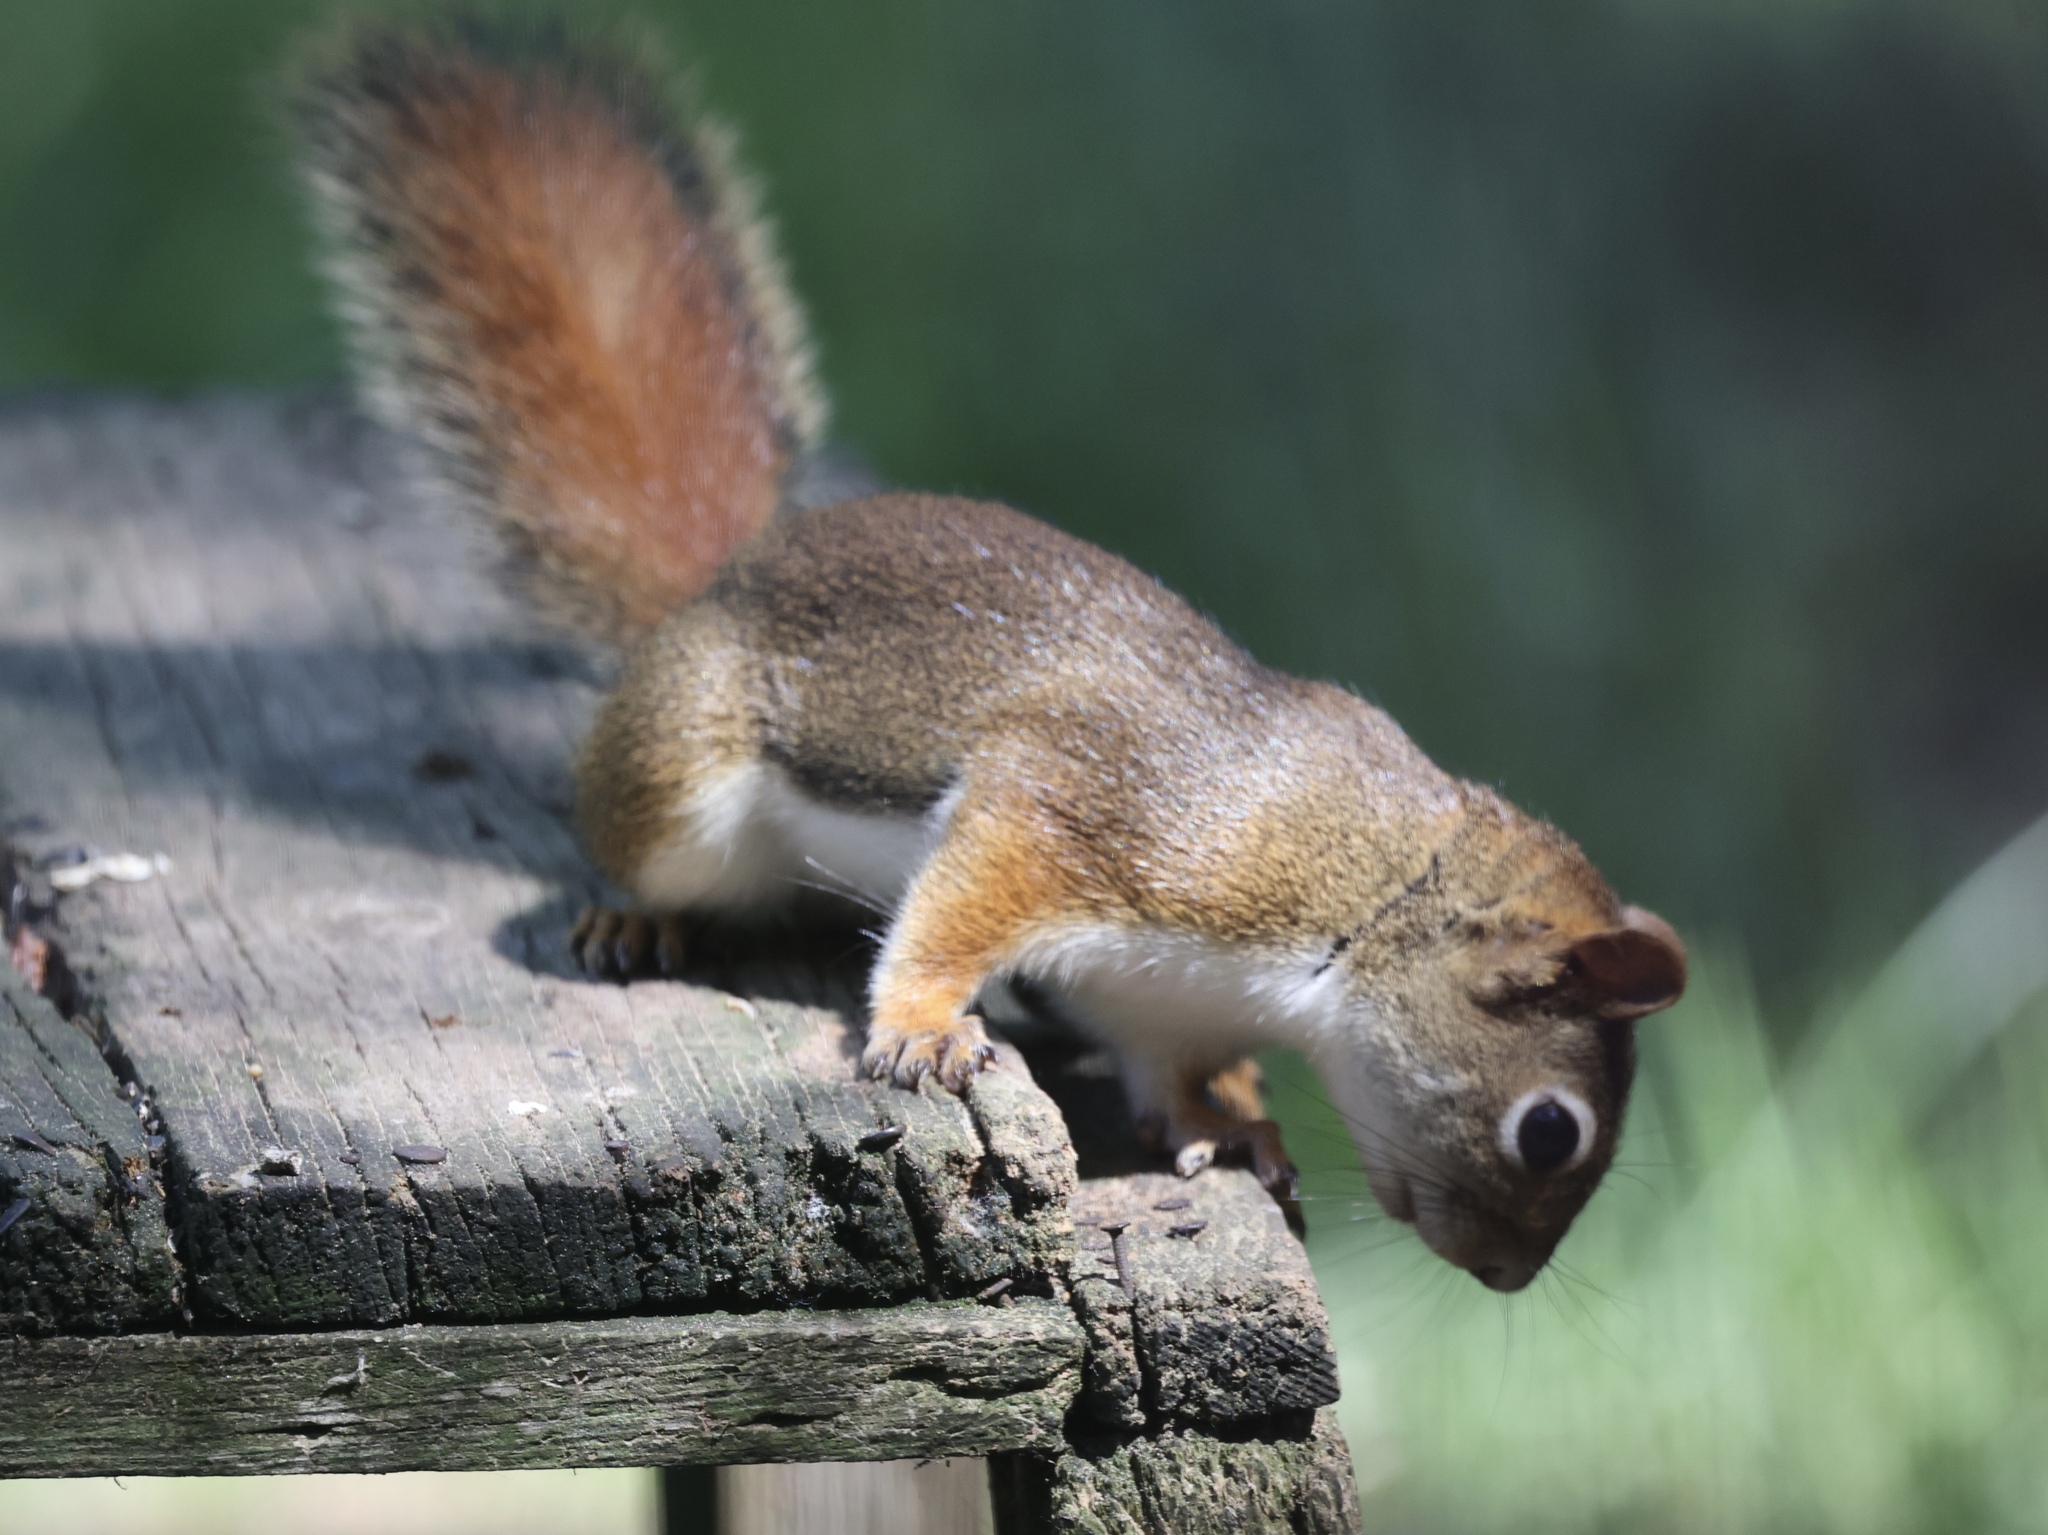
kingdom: Animalia
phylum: Chordata
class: Mammalia
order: Rodentia
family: Sciuridae
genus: Tamiasciurus
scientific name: Tamiasciurus hudsonicus
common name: Red squirrel
